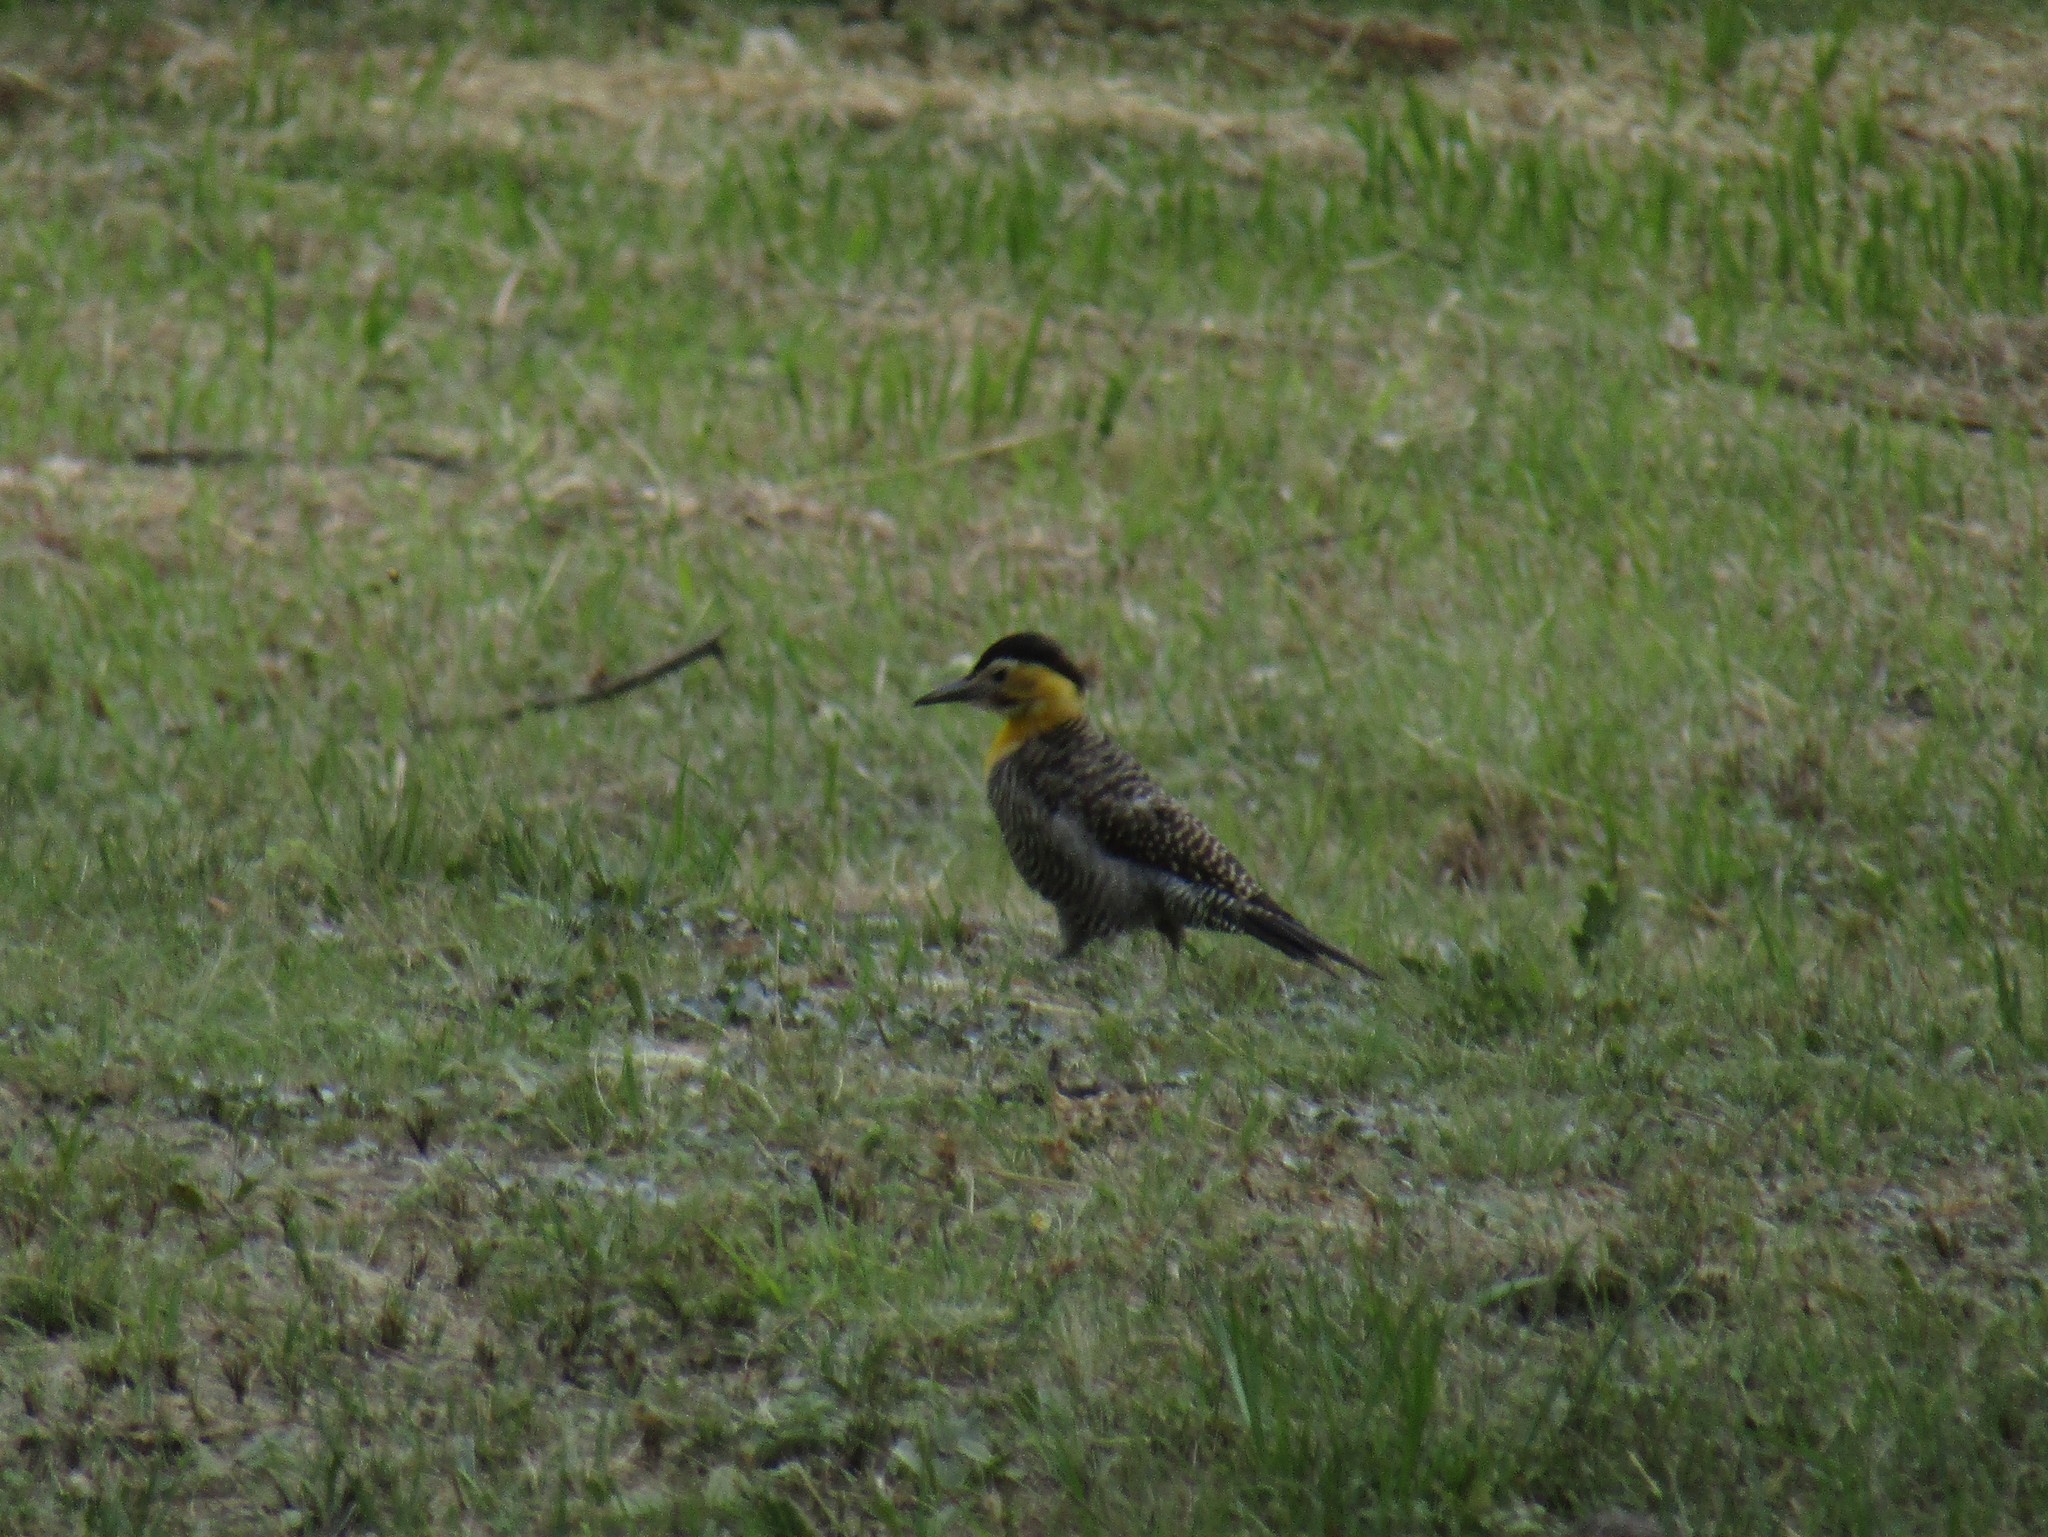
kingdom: Animalia
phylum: Chordata
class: Aves
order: Piciformes
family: Picidae
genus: Colaptes
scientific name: Colaptes campestris
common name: Campo flicker
